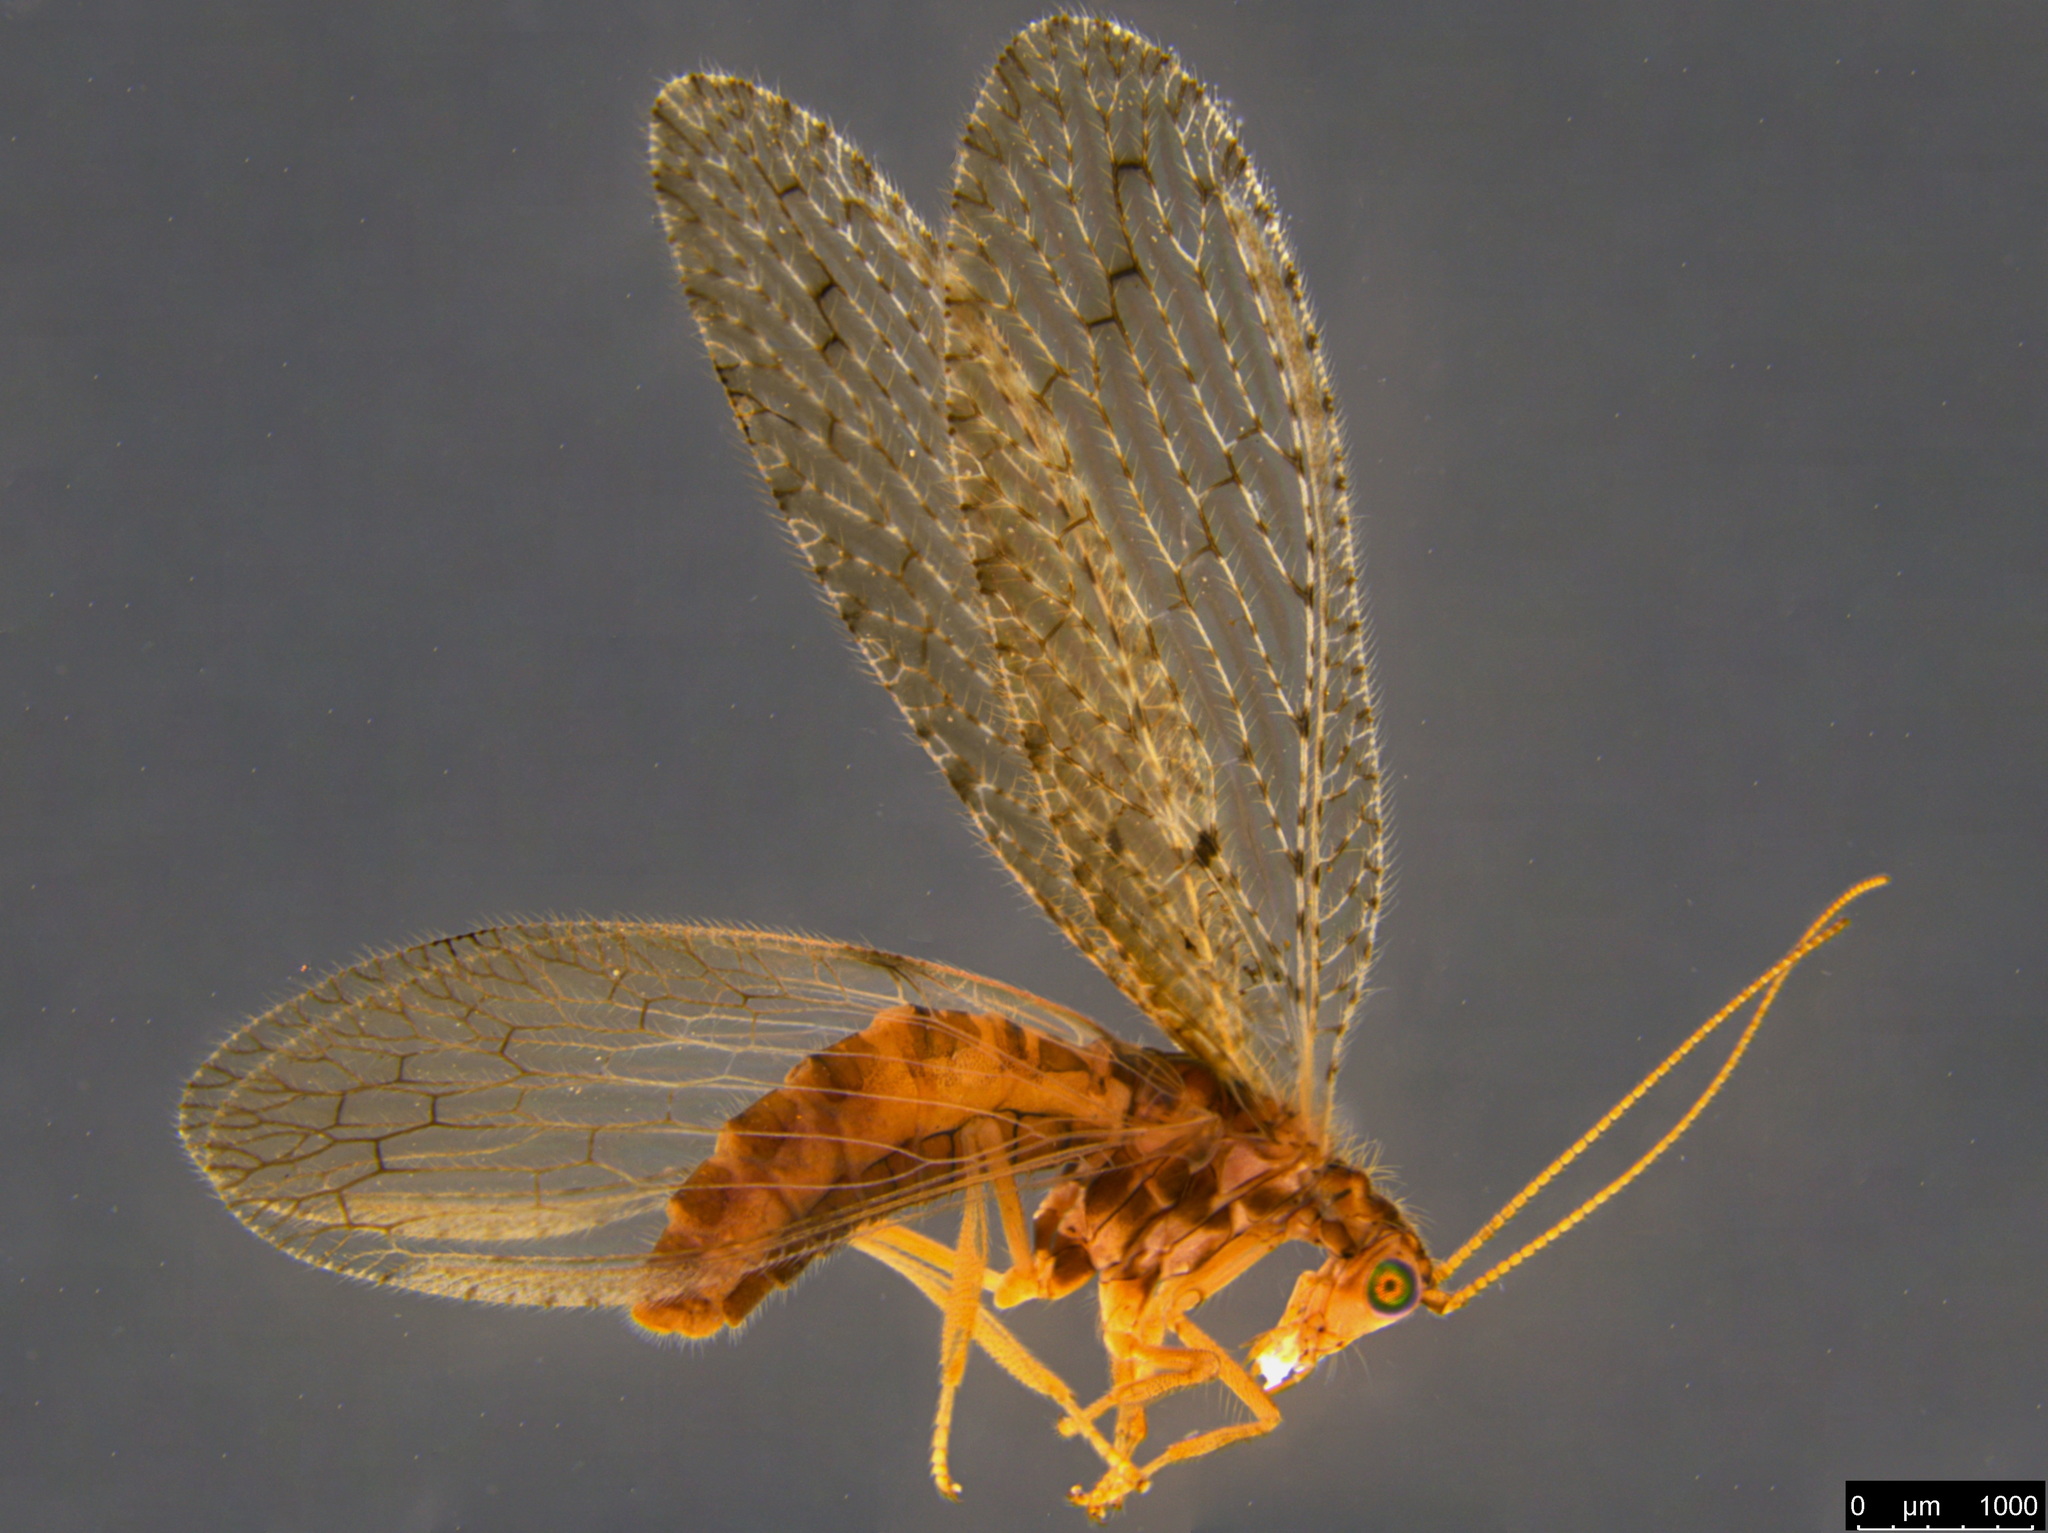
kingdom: Animalia
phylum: Arthropoda
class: Insecta
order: Neuroptera
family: Hemerobiidae
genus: Micromus
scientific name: Micromus tasmaniae
